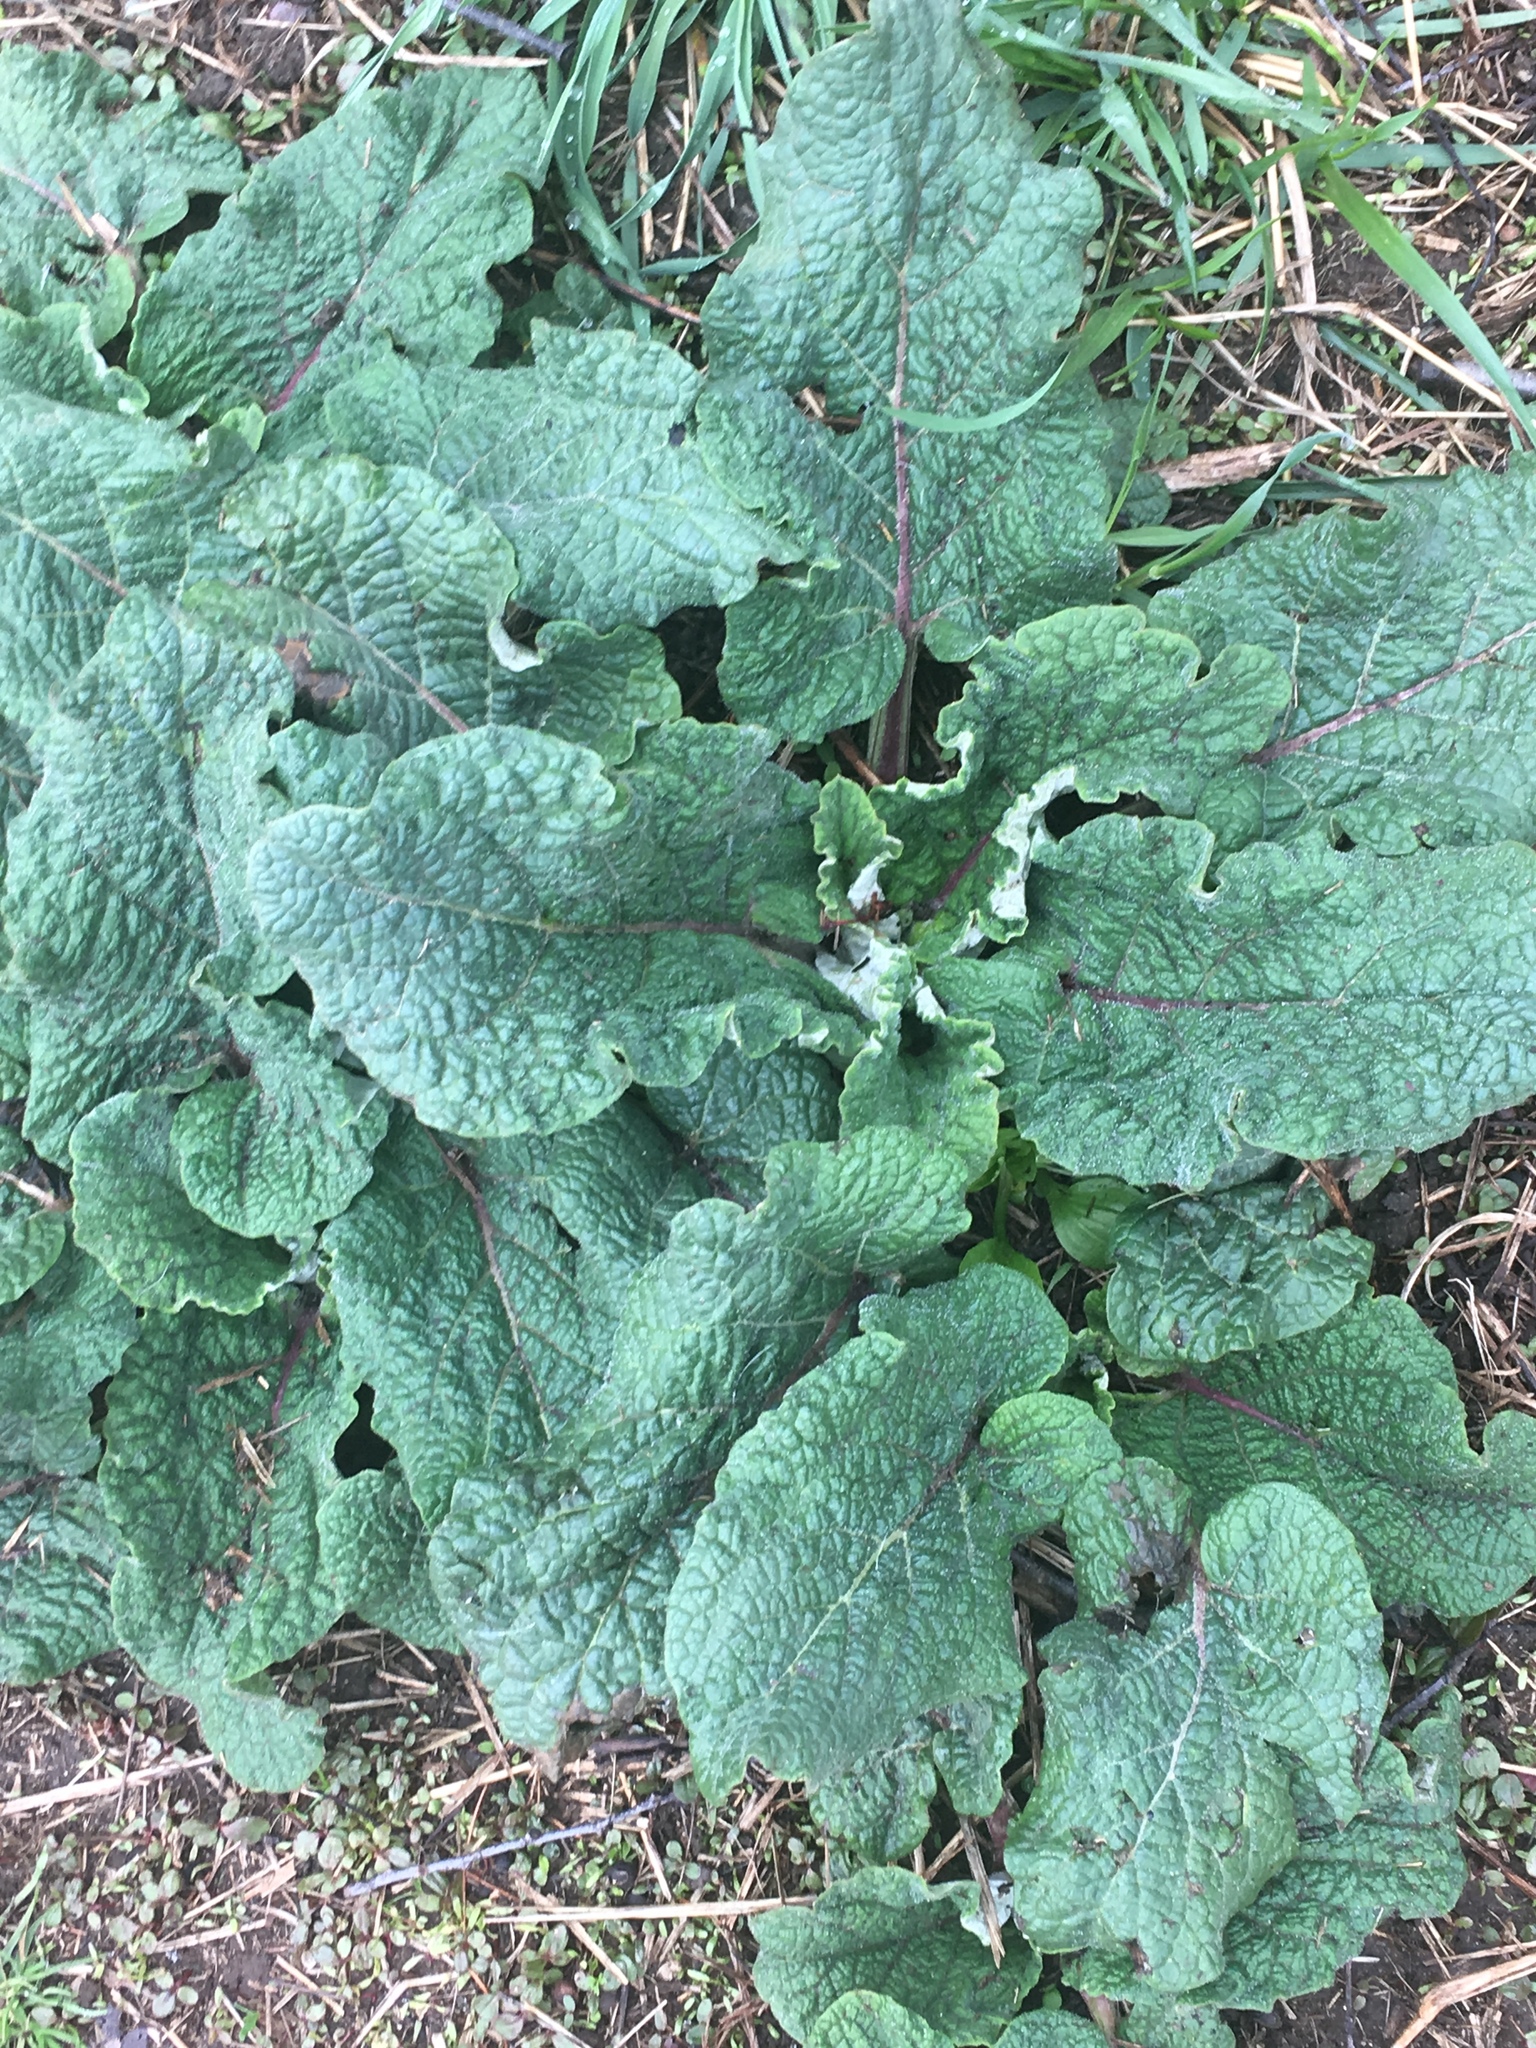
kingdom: Plantae
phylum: Tracheophyta
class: Magnoliopsida
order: Asterales
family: Asteraceae
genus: Arctium
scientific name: Arctium
